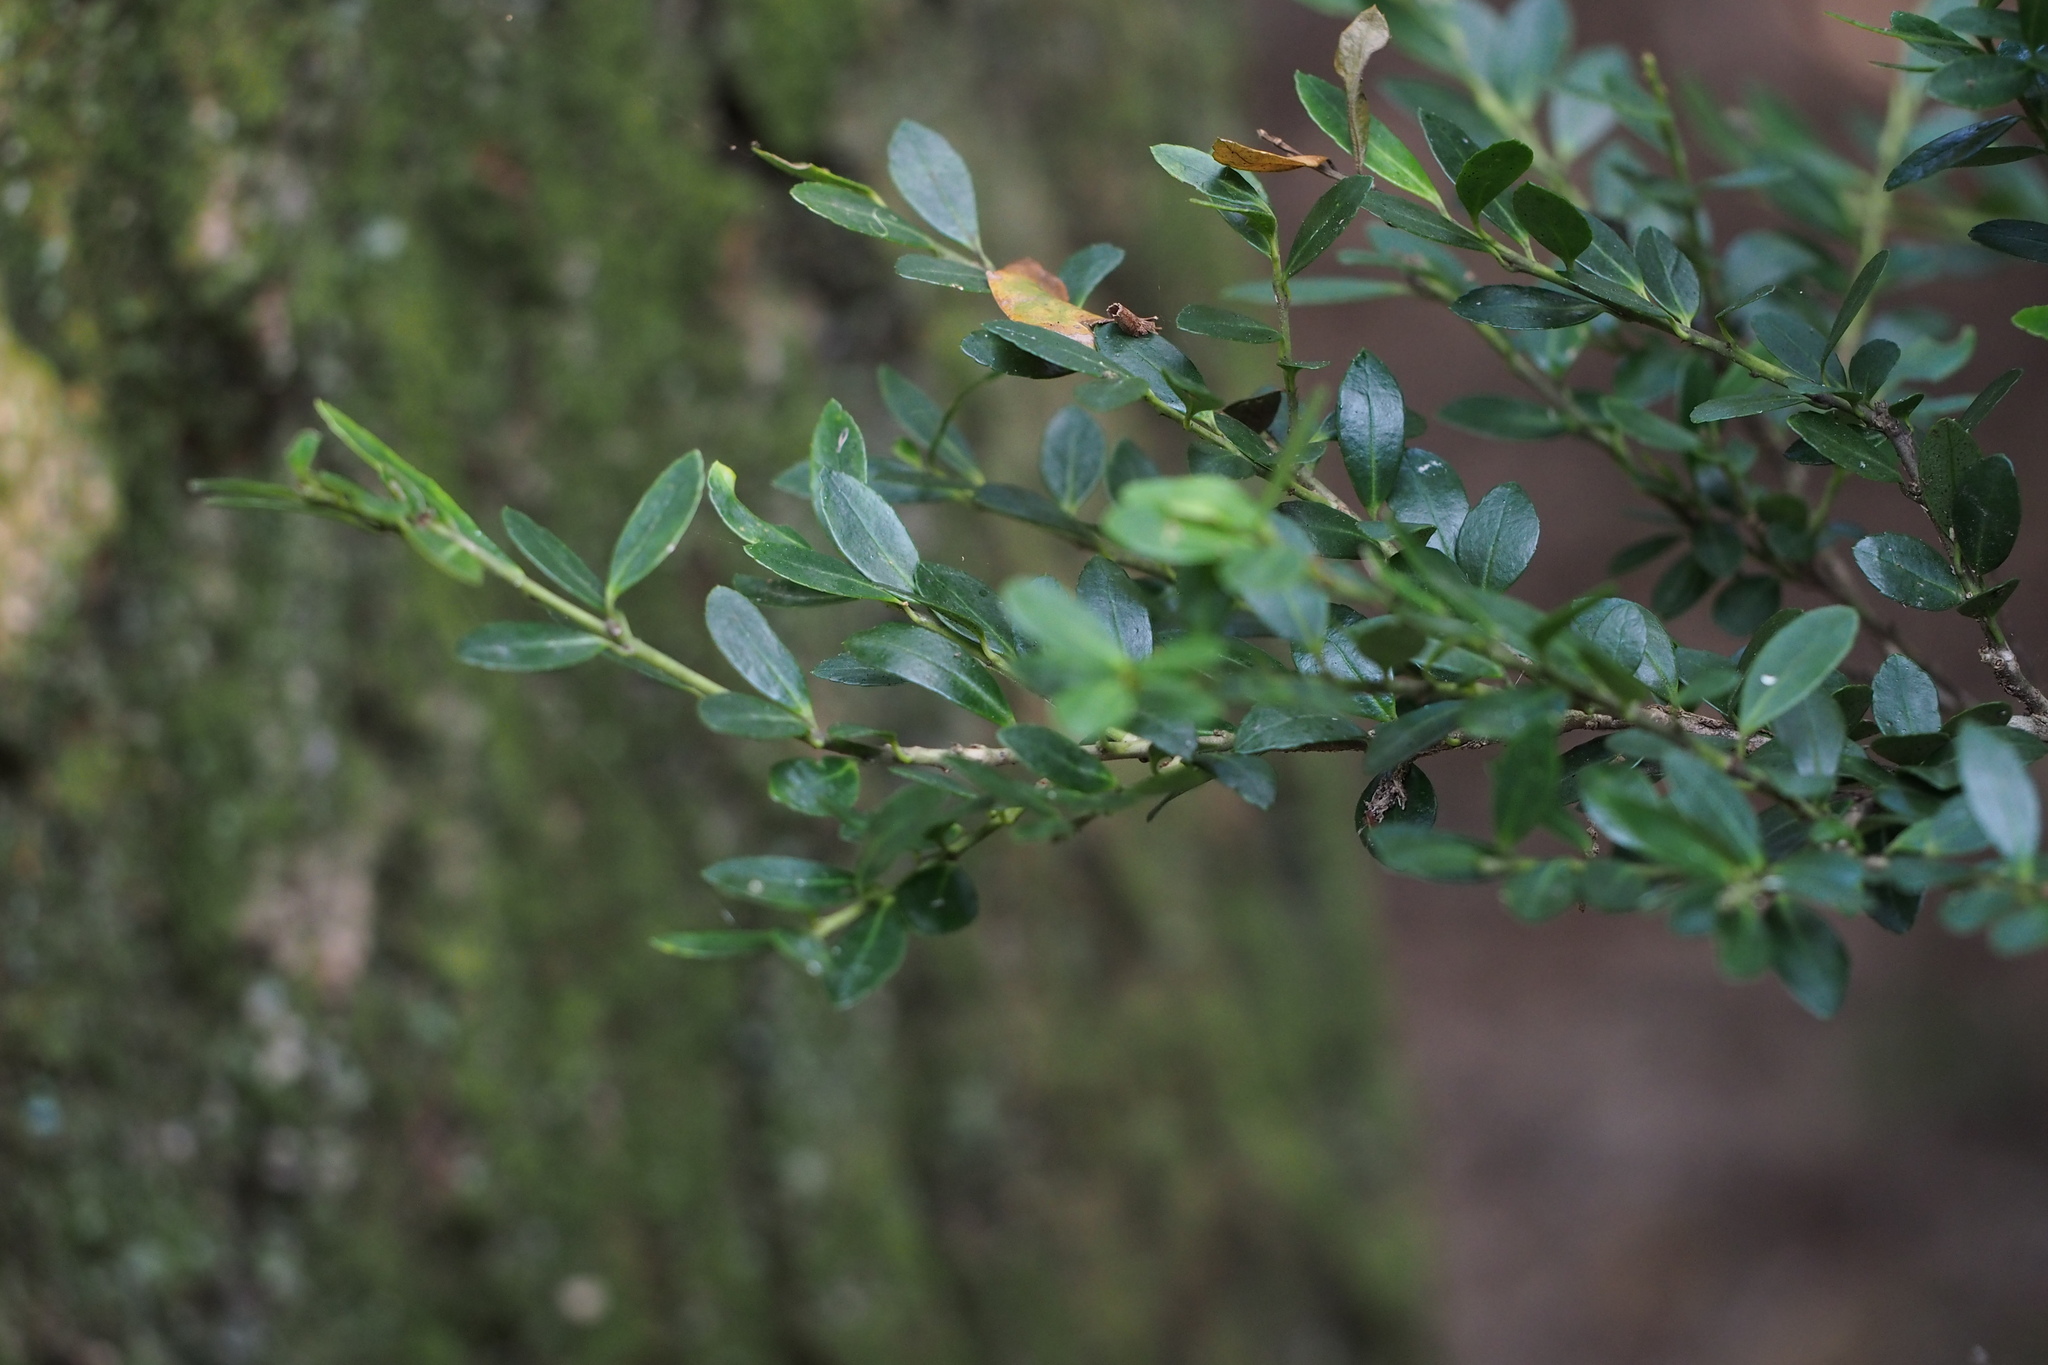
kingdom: Plantae
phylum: Tracheophyta
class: Magnoliopsida
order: Aquifoliales
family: Aquifoliaceae
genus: Ilex
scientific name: Ilex crenata
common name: Japanese holly
